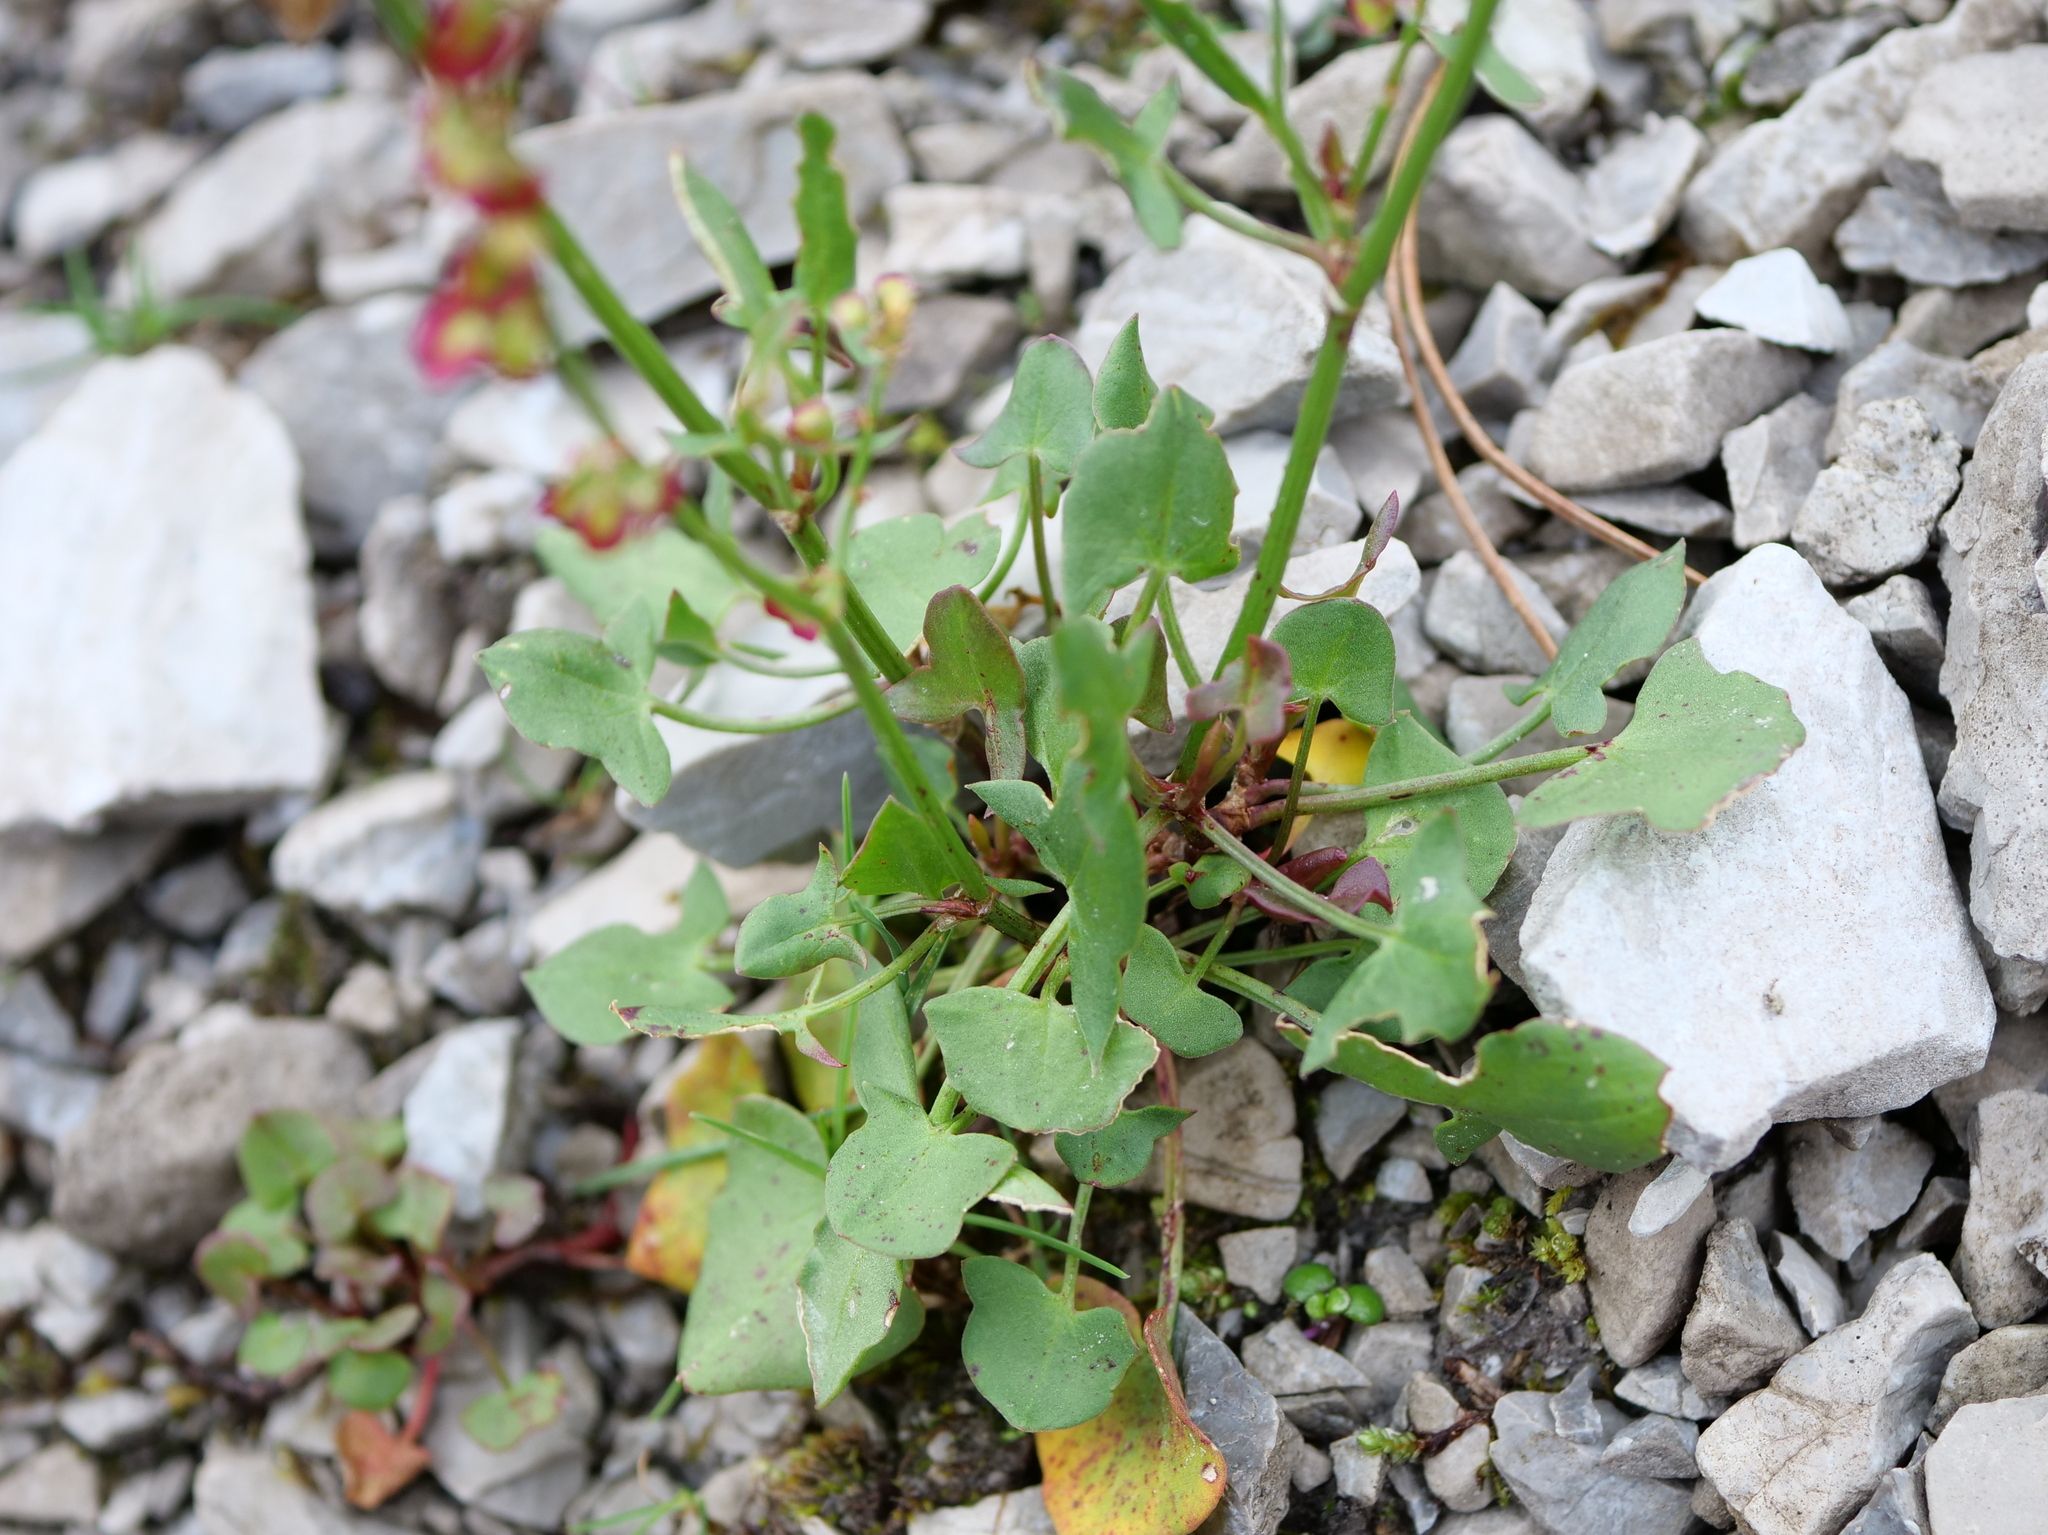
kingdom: Plantae
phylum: Tracheophyta
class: Magnoliopsida
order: Caryophyllales
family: Polygonaceae
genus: Rumex
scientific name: Rumex scutatus
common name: French sorrel
